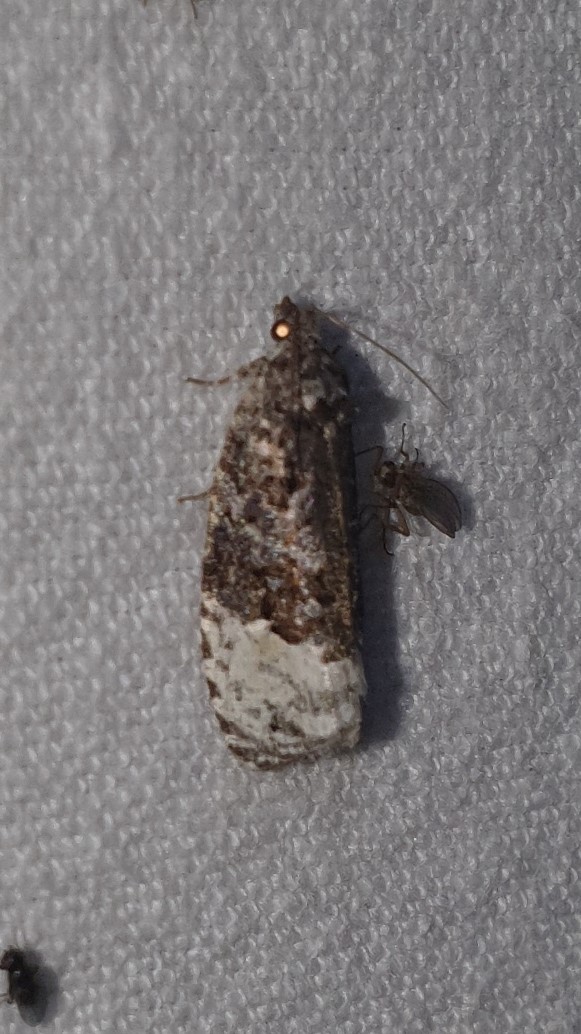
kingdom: Animalia
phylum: Arthropoda
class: Insecta
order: Lepidoptera
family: Tortricidae
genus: Hedya
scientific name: Hedya nubiferana
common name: Marbled orchard tortrix
